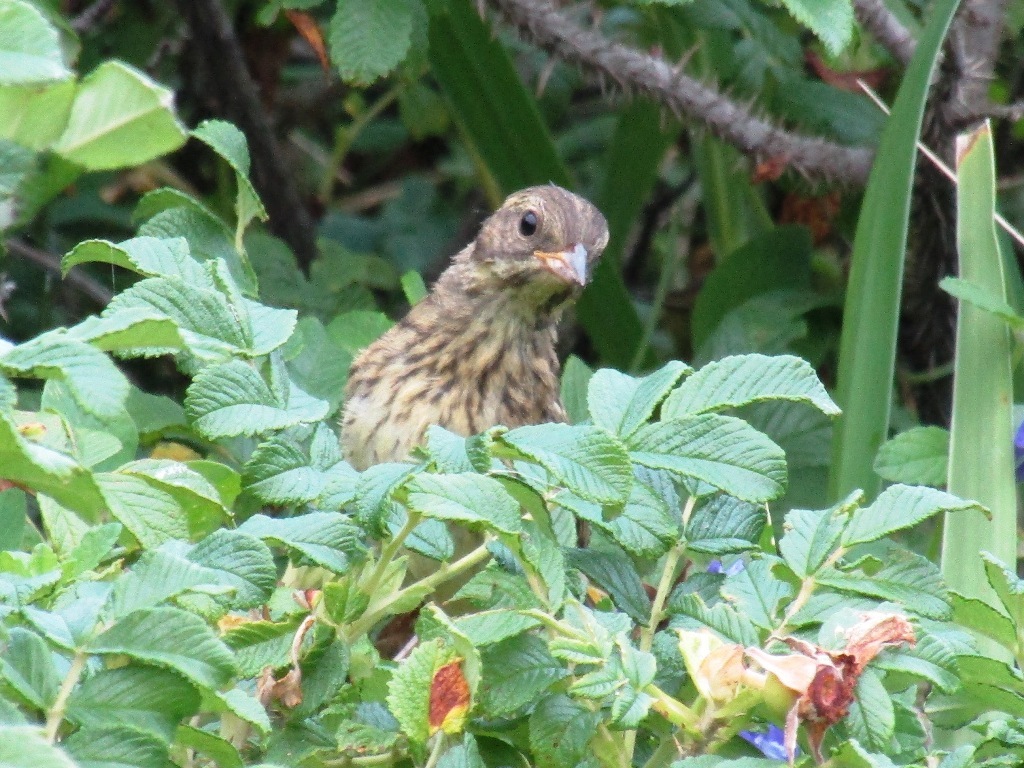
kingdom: Animalia
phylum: Chordata
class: Aves
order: Passeriformes
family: Emberizidae
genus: Emberiza
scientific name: Emberiza personata
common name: Masked bunting
